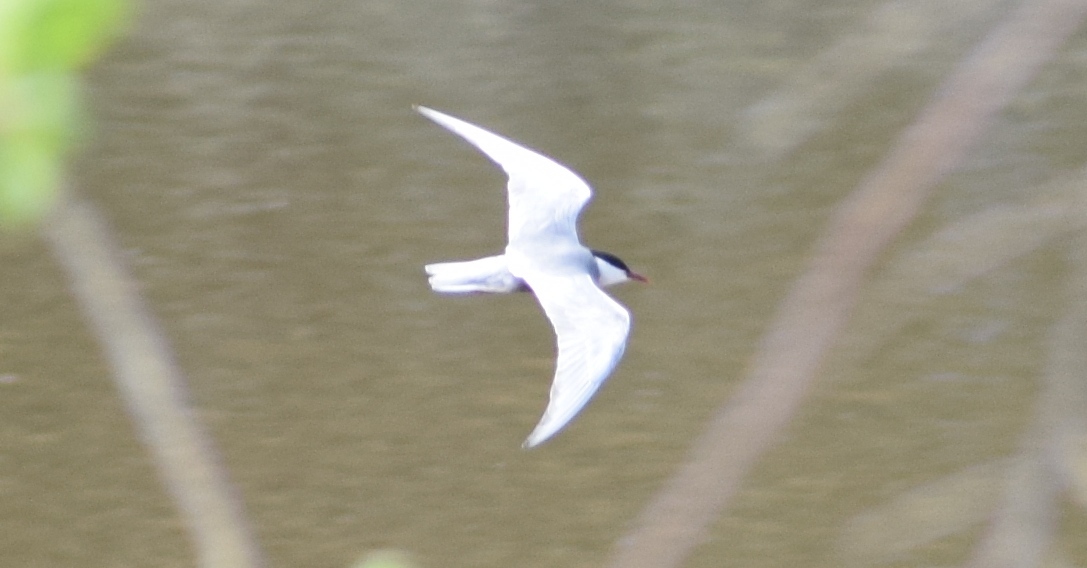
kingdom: Animalia
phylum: Chordata
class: Aves
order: Charadriiformes
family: Laridae
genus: Chlidonias
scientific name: Chlidonias hybrida
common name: Whiskered tern
